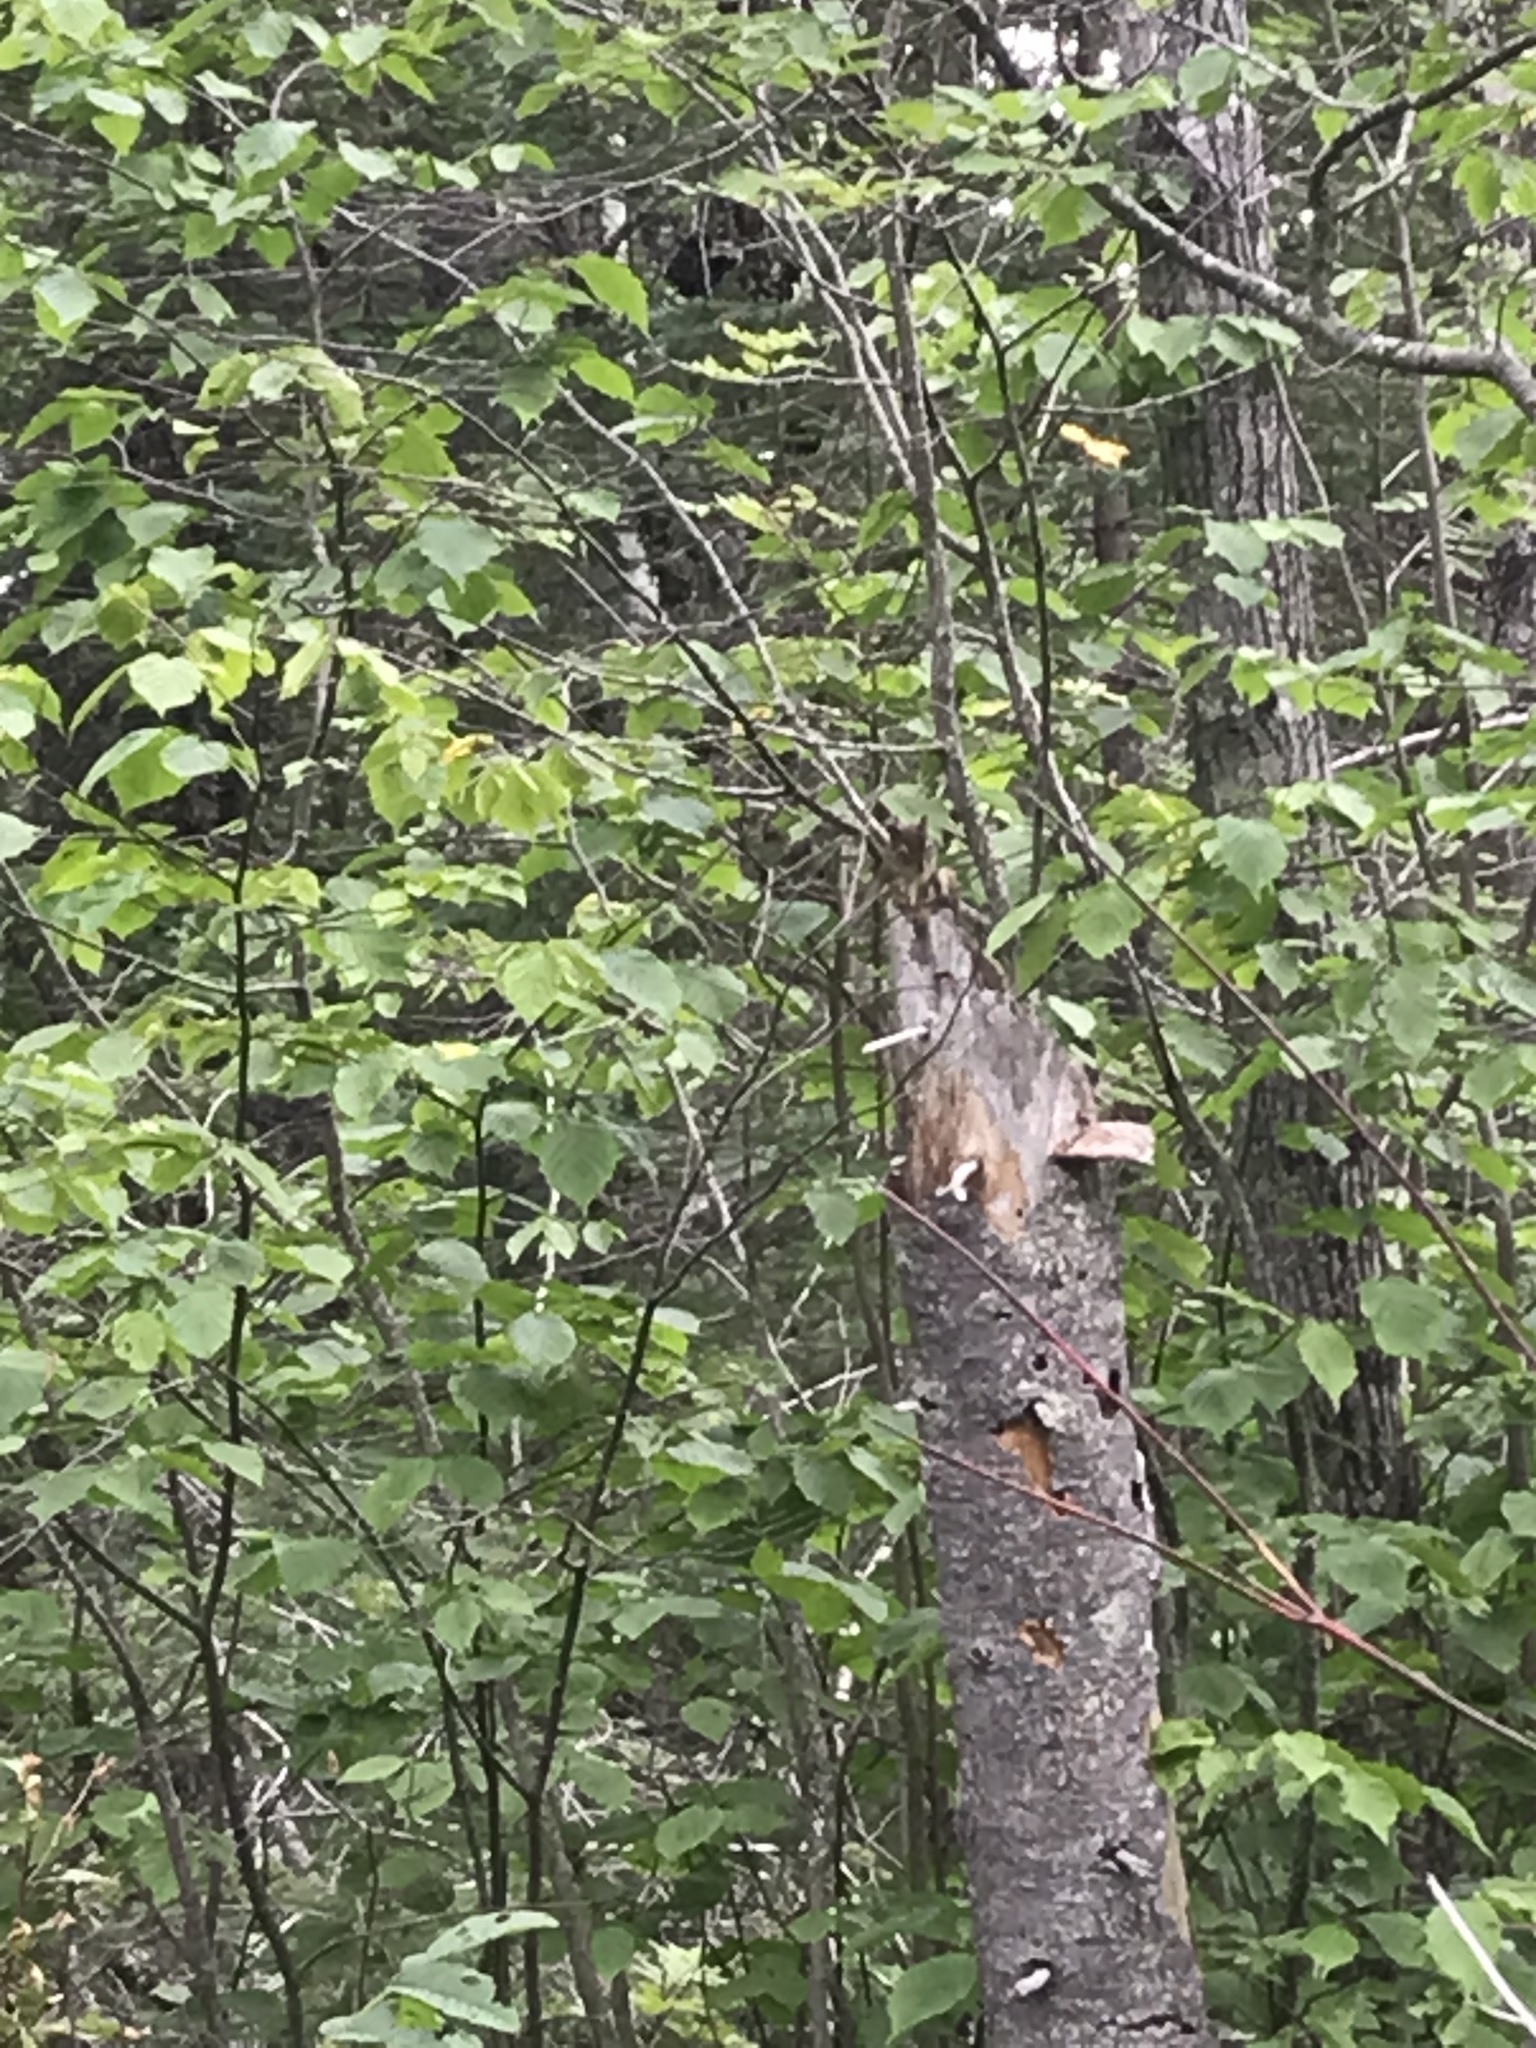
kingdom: Animalia
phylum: Chordata
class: Mammalia
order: Rodentia
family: Sciuridae
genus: Tamiasciurus
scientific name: Tamiasciurus hudsonicus
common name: Red squirrel
